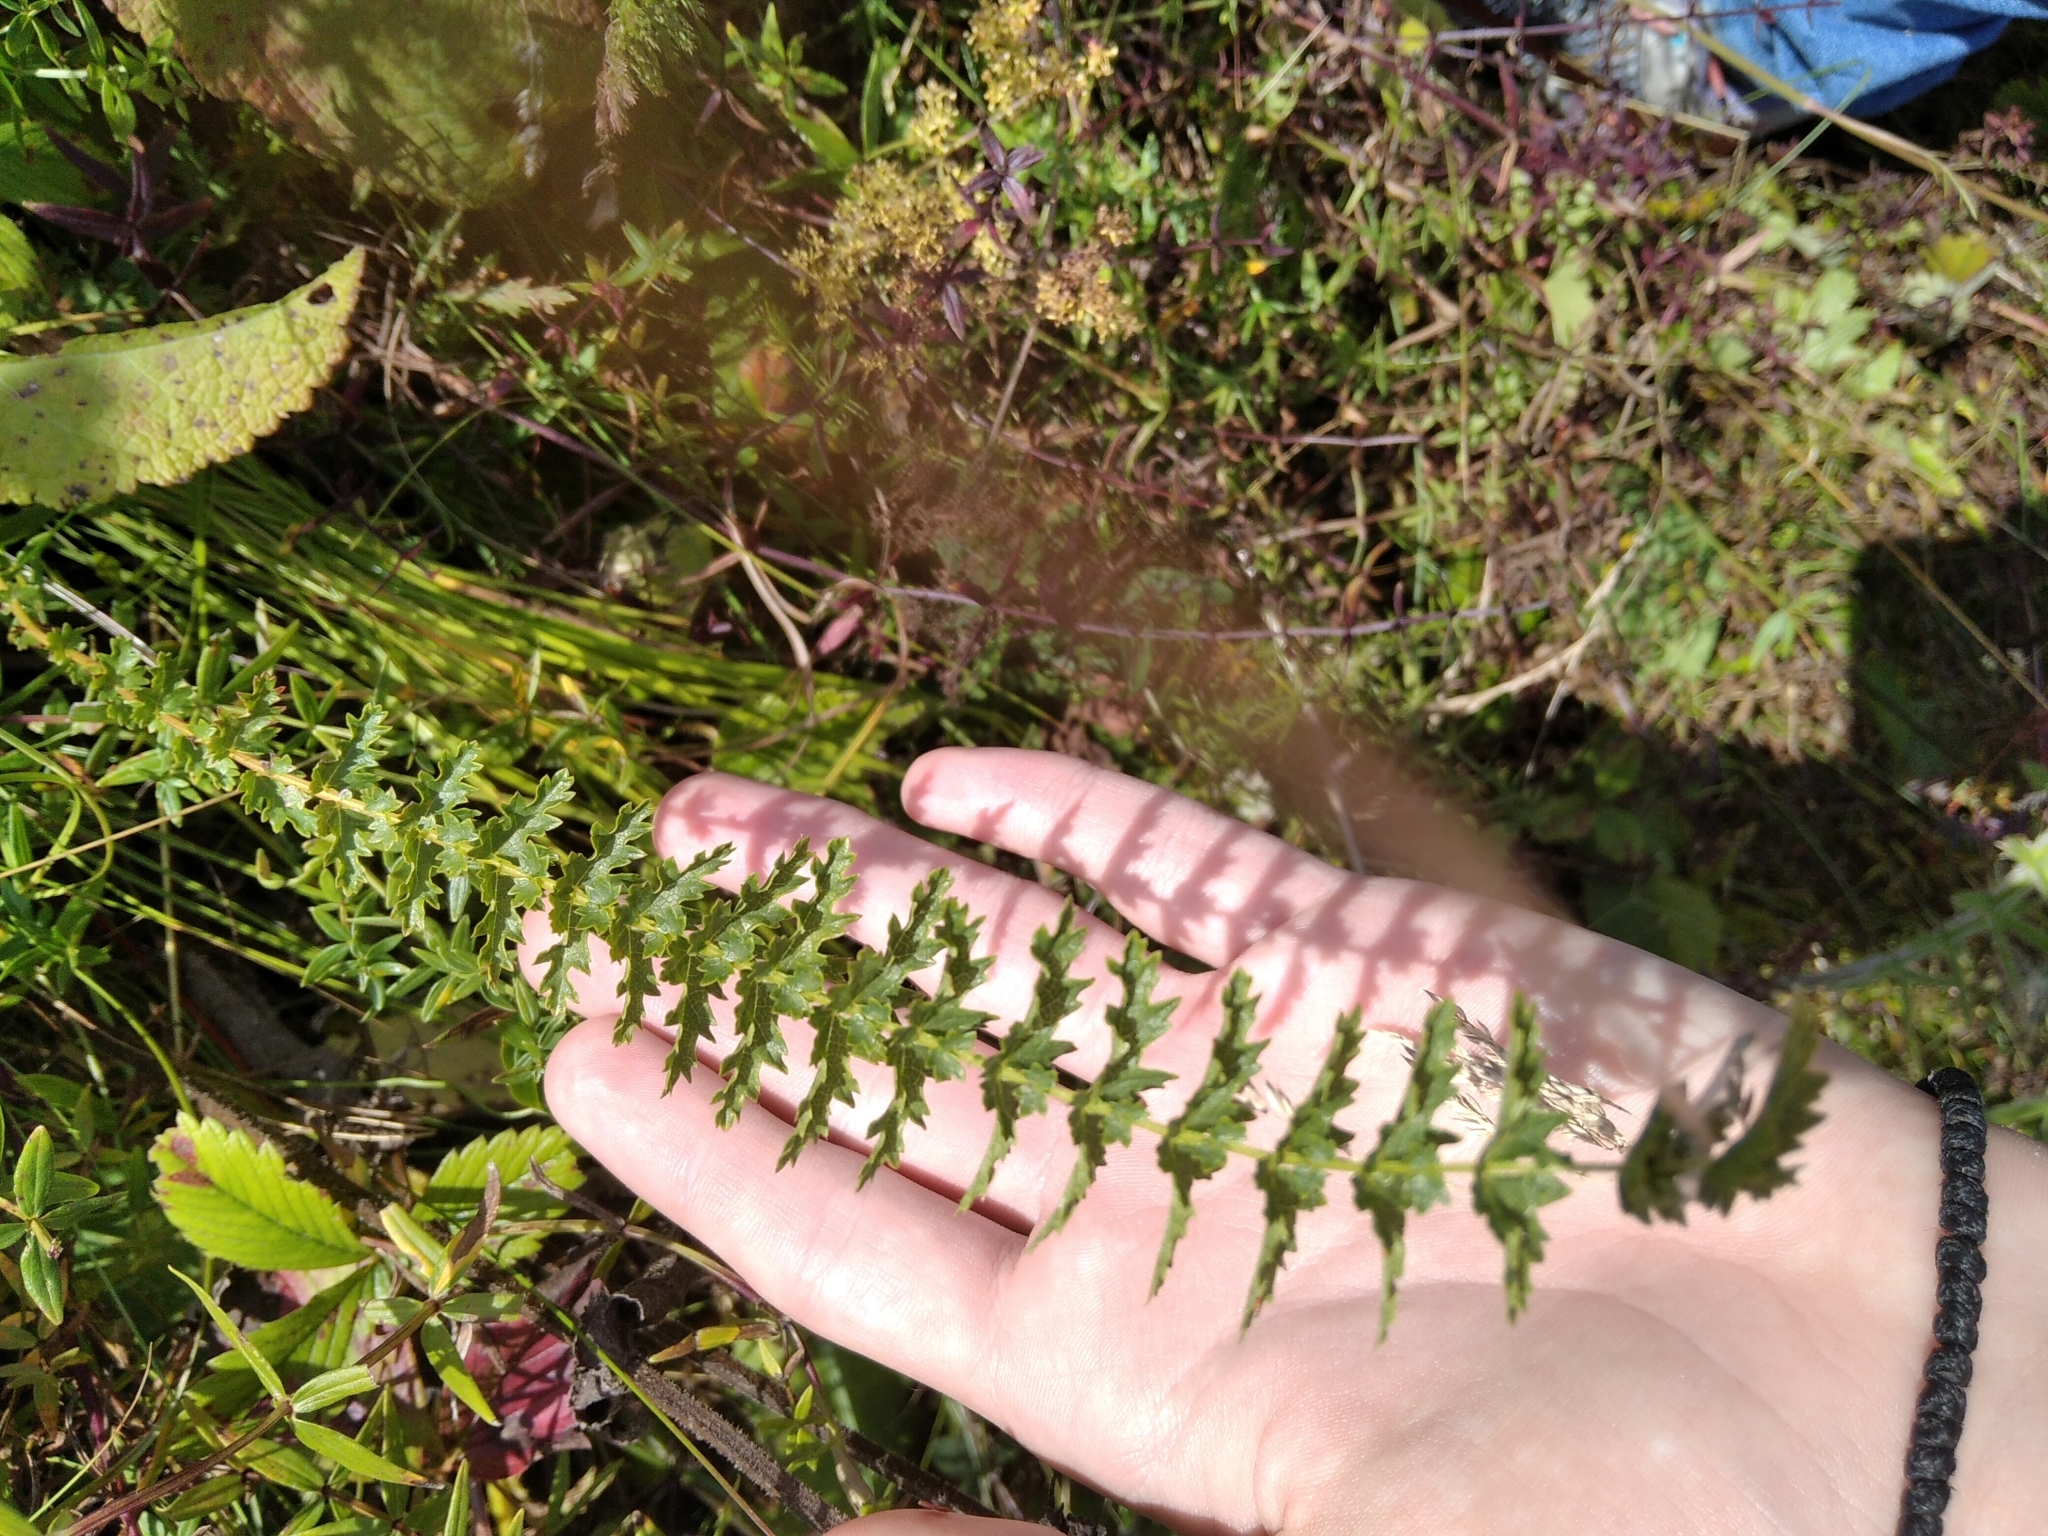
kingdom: Plantae
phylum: Tracheophyta
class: Magnoliopsida
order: Rosales
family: Rosaceae
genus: Filipendula
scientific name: Filipendula vulgaris
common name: Dropwort
